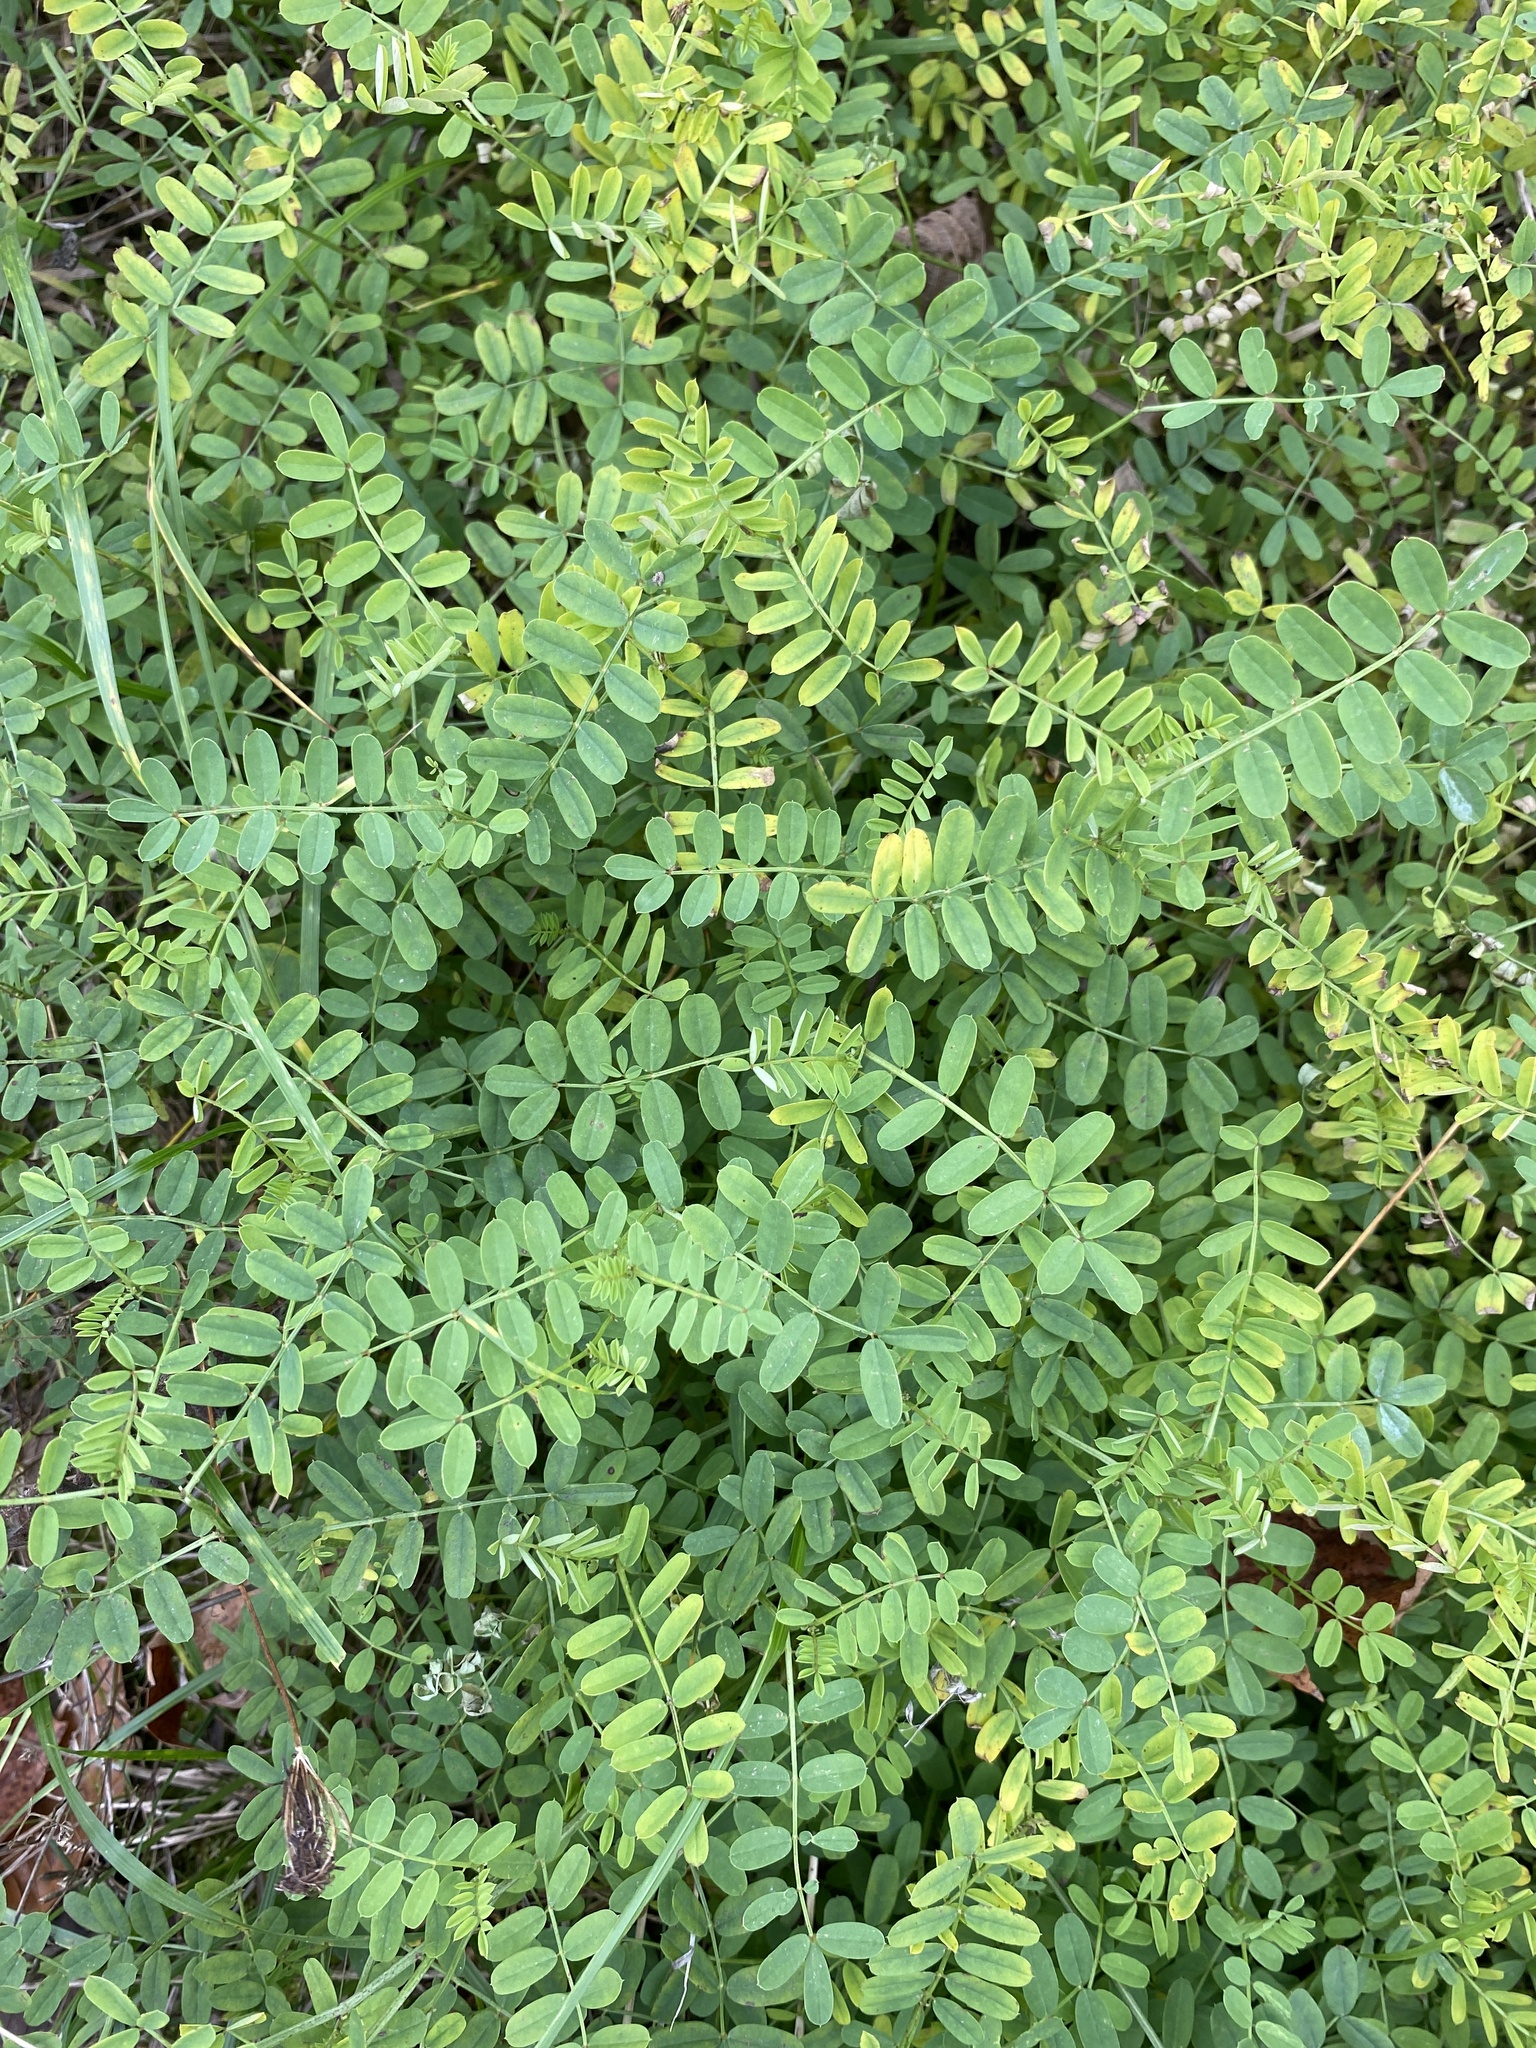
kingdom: Plantae
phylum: Tracheophyta
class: Magnoliopsida
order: Fabales
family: Fabaceae
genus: Coronilla
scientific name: Coronilla varia
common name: Crownvetch
